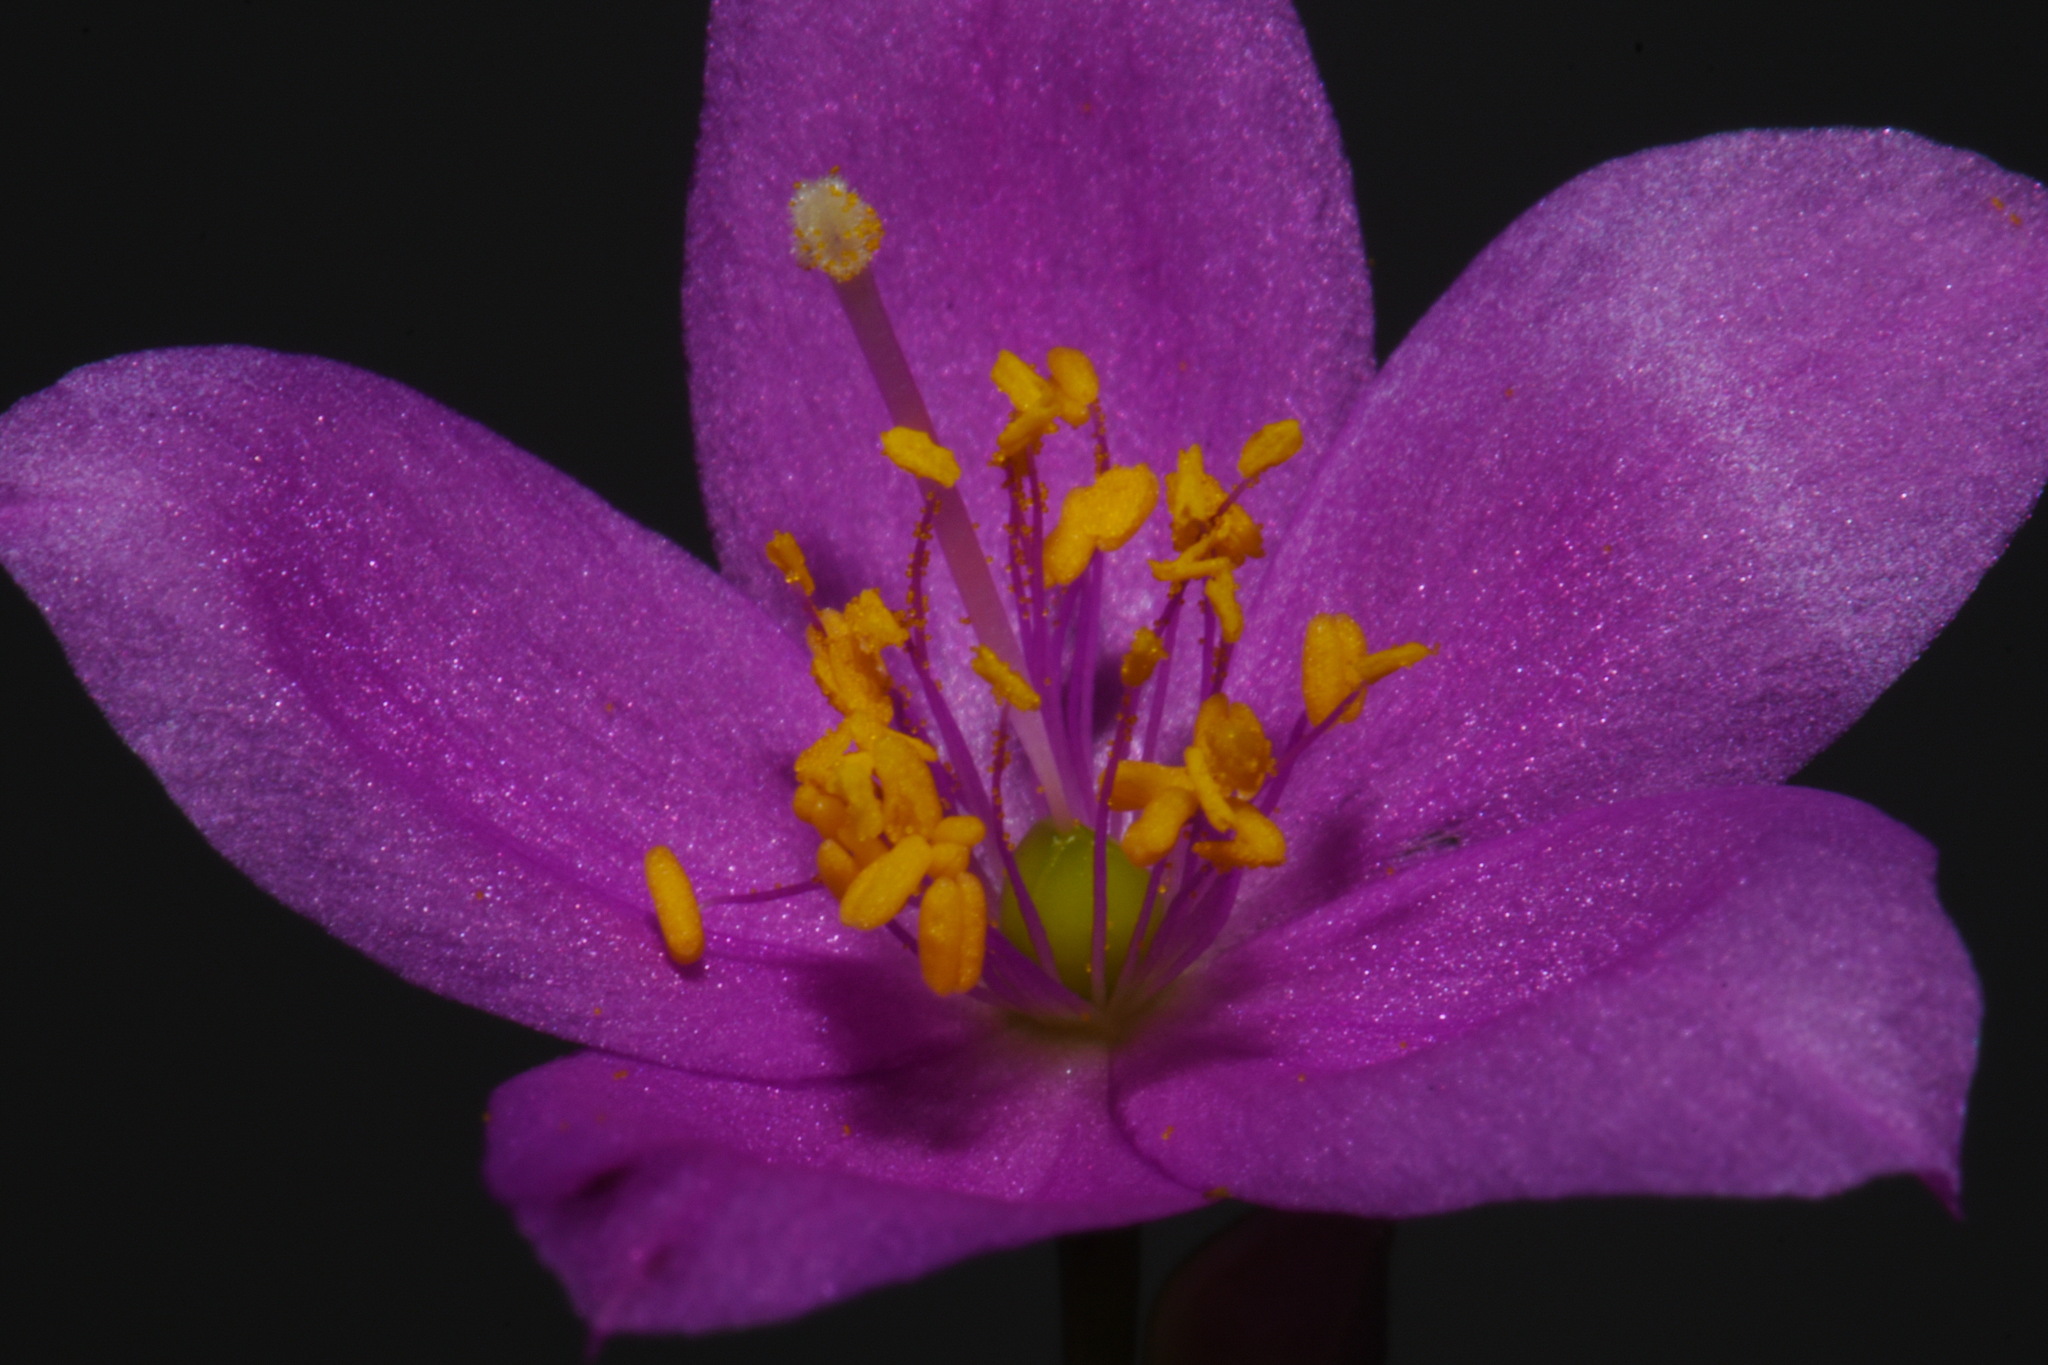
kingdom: Plantae
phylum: Tracheophyta
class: Magnoliopsida
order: Caryophyllales
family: Montiaceae
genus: Phemeranthus
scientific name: Phemeranthus calcaricus
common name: Limestone fameflower
